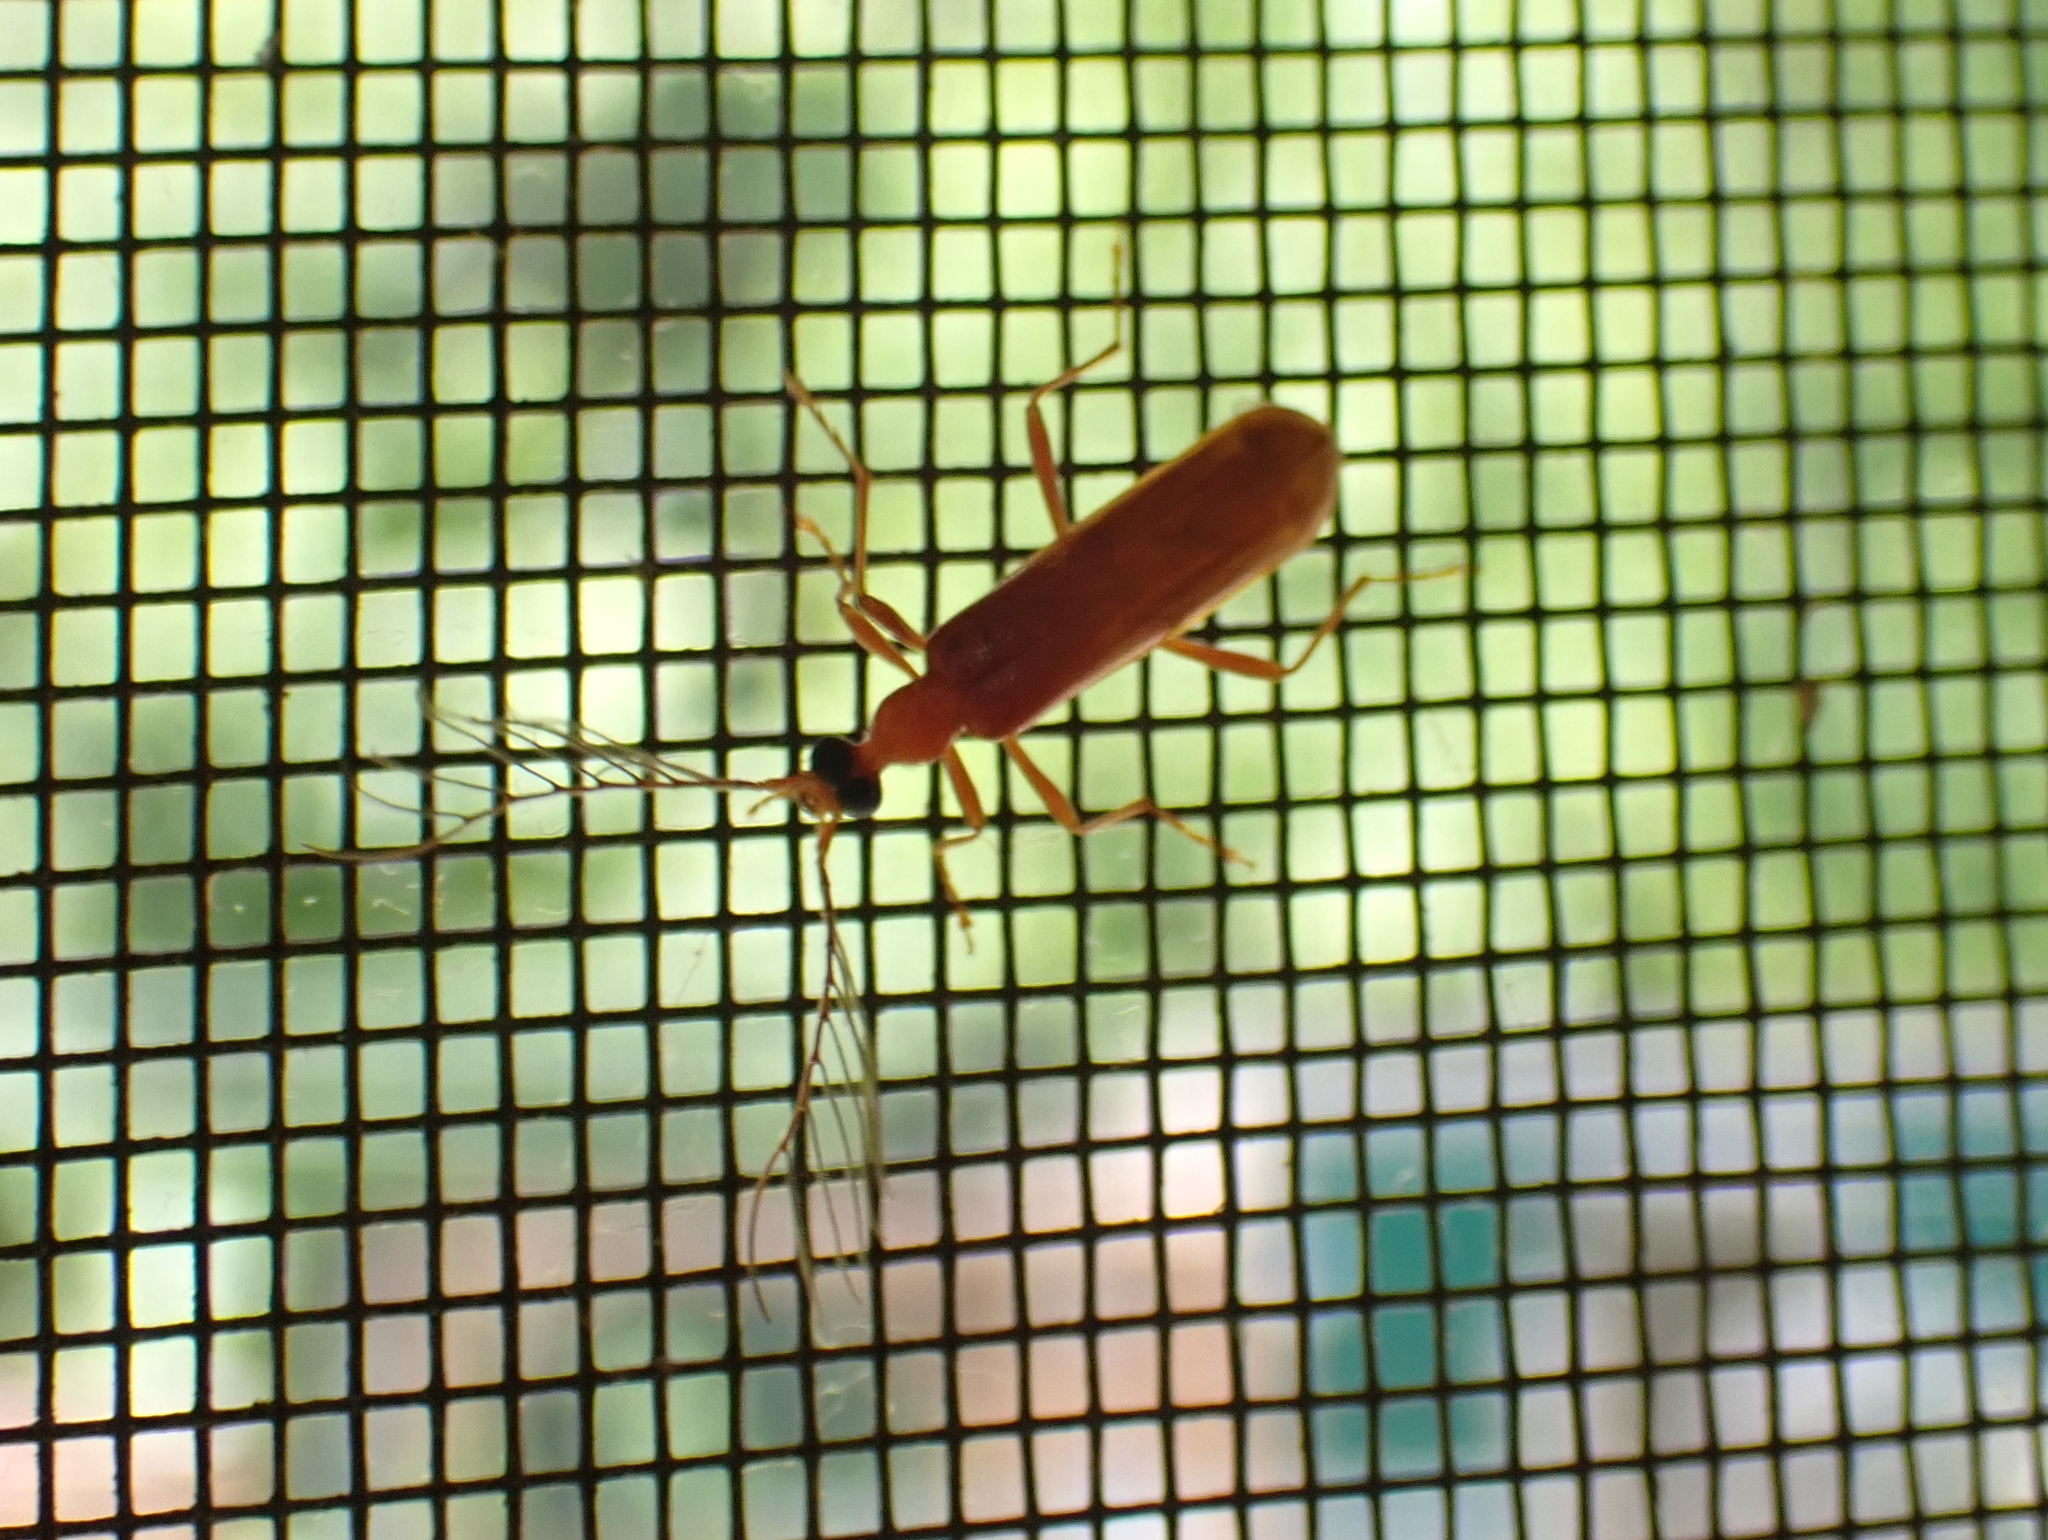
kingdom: Animalia
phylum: Arthropoda
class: Insecta
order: Coleoptera
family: Pyrochroidae
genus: Dendroides
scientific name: Dendroides concolor
